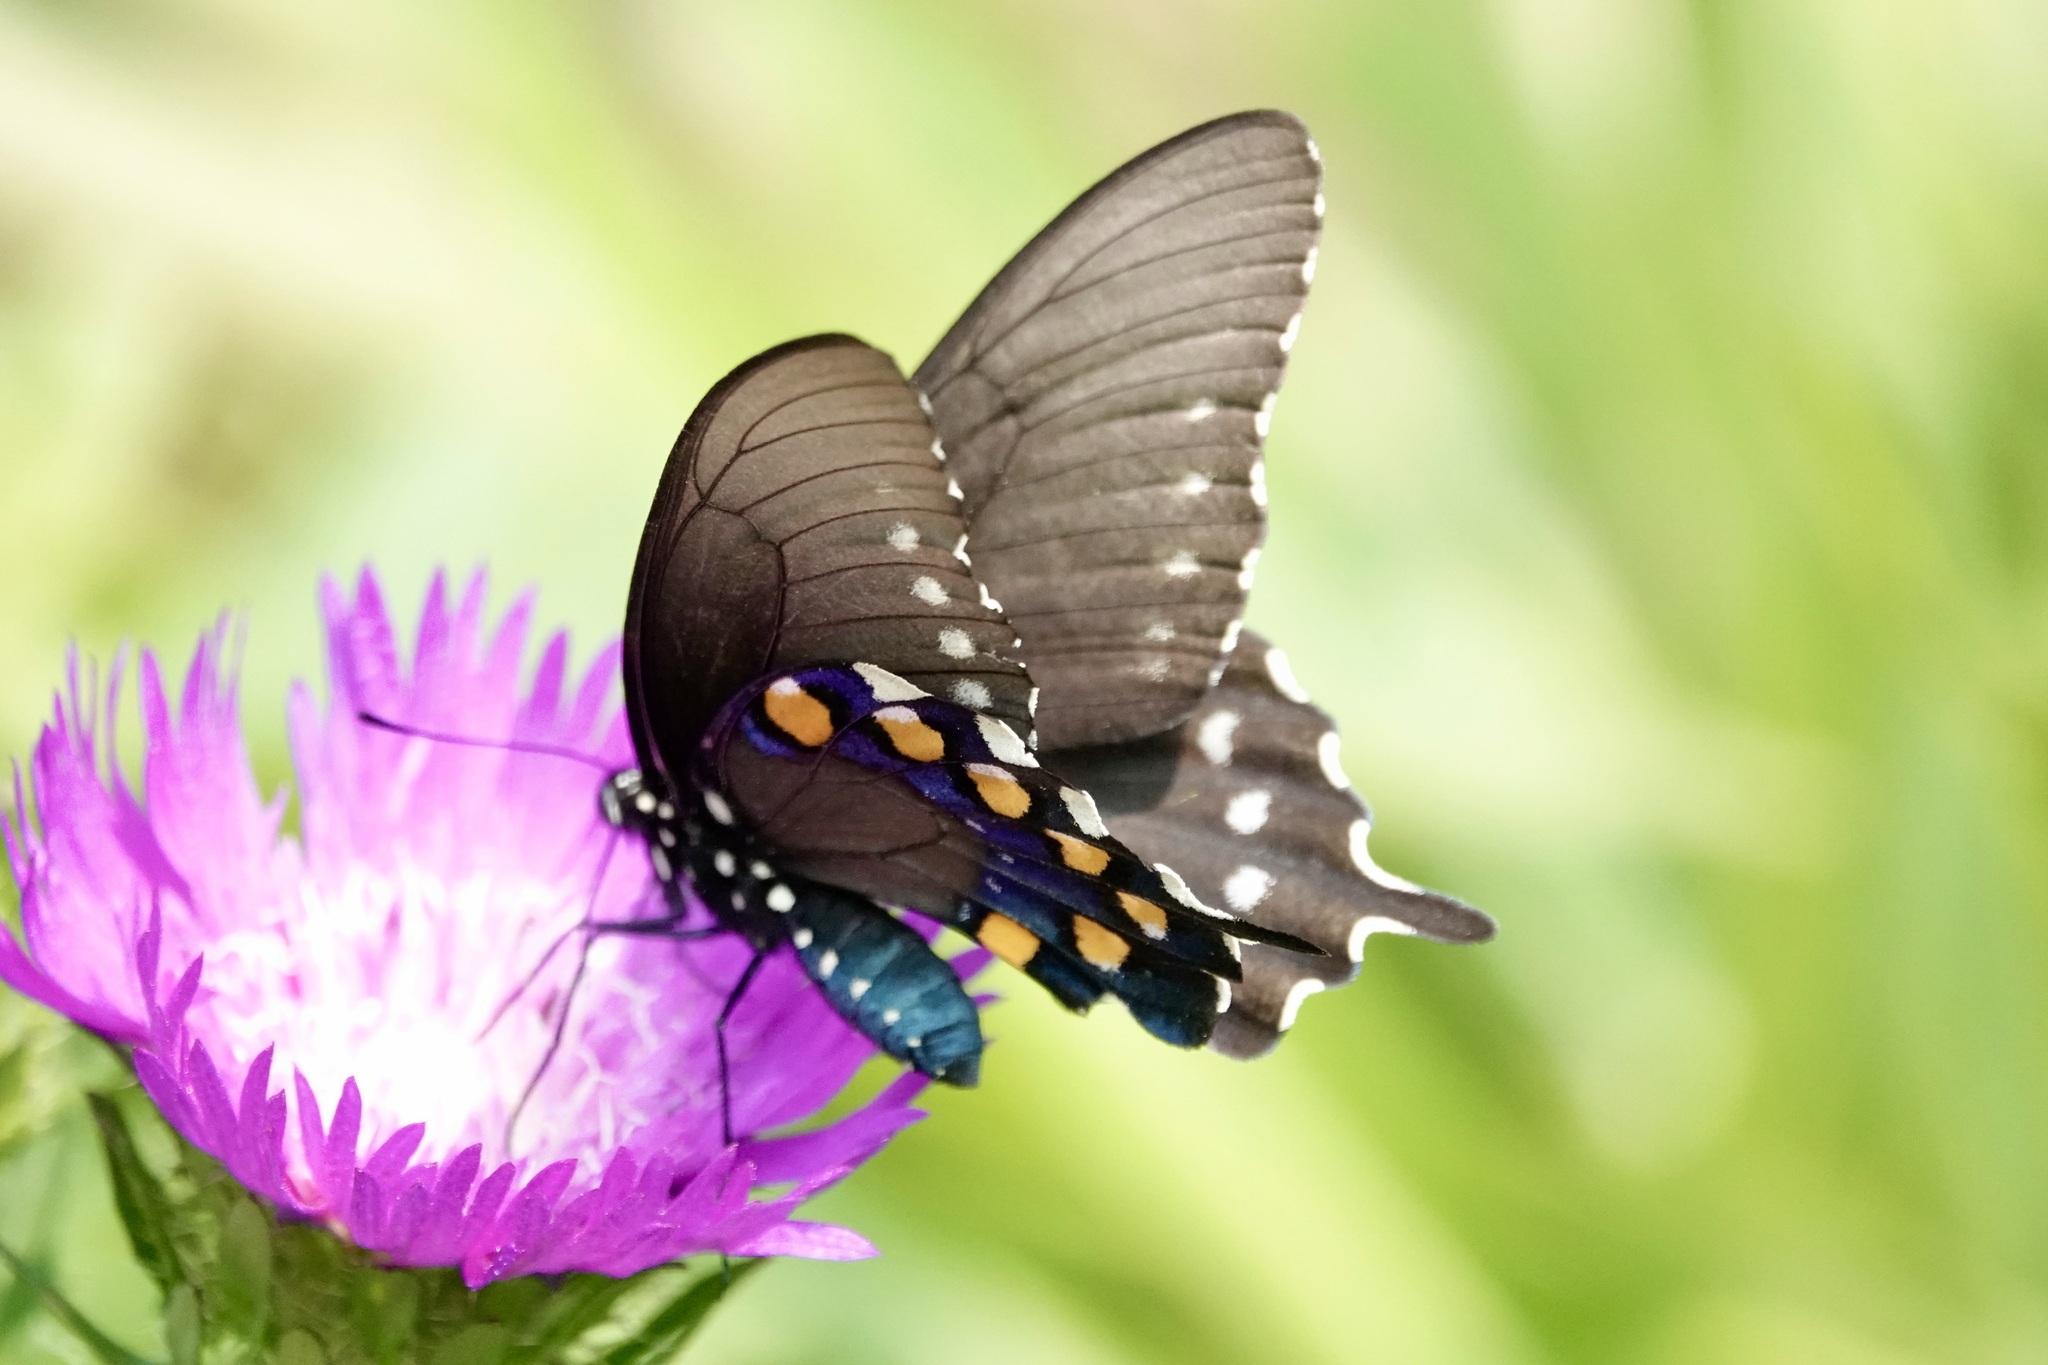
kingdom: Animalia
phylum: Arthropoda
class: Insecta
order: Lepidoptera
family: Papilionidae
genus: Battus
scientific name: Battus philenor
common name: Pipevine swallowtail
